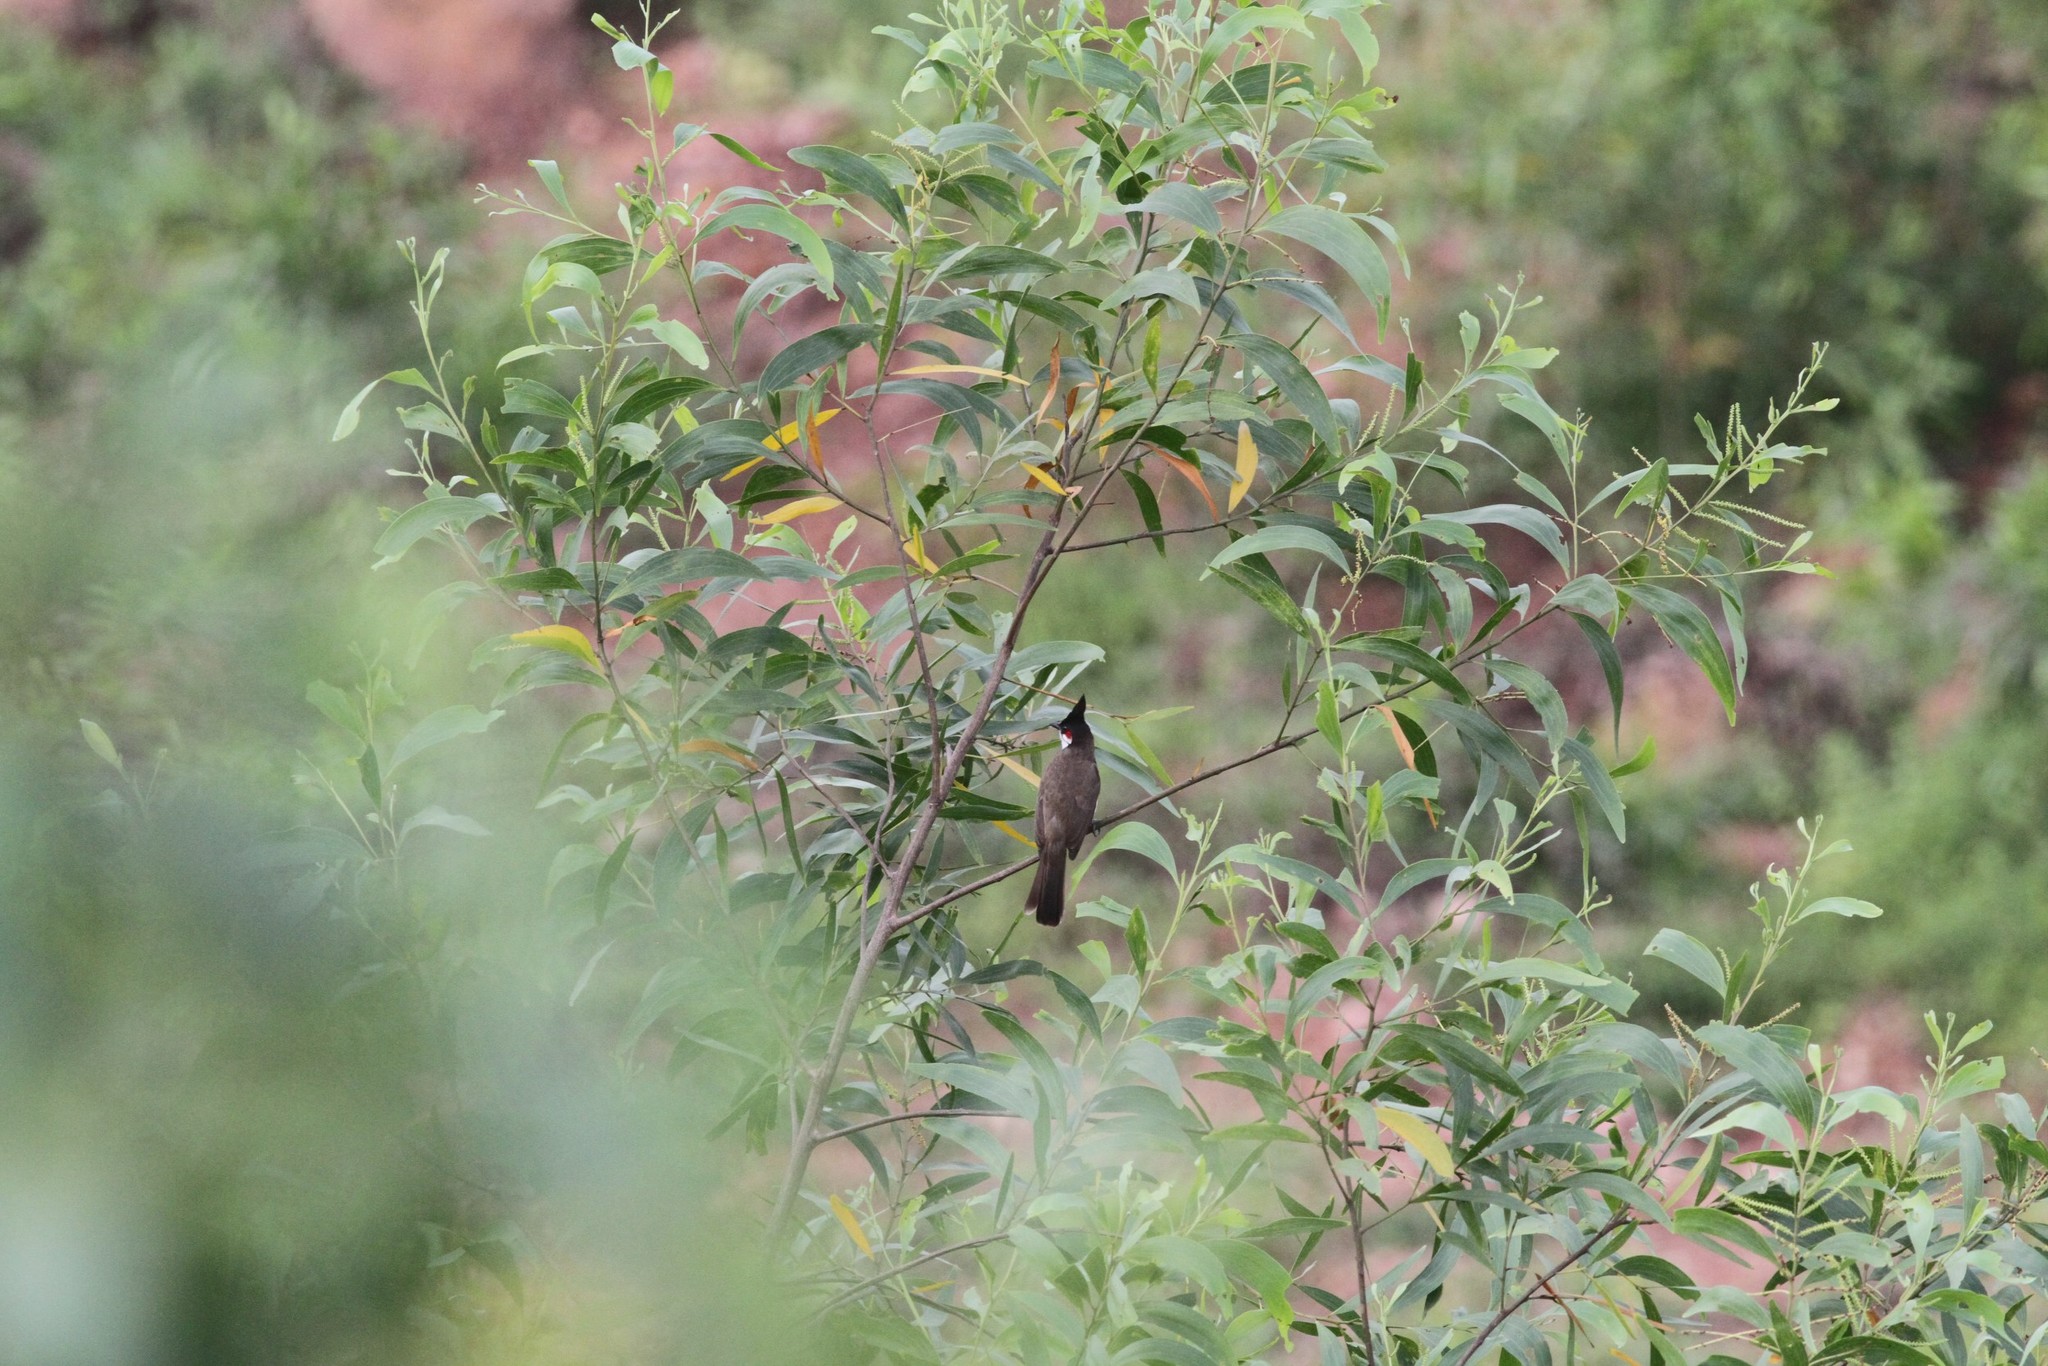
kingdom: Animalia
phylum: Chordata
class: Aves
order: Passeriformes
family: Pycnonotidae
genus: Pycnonotus
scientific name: Pycnonotus jocosus
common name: Red-whiskered bulbul
